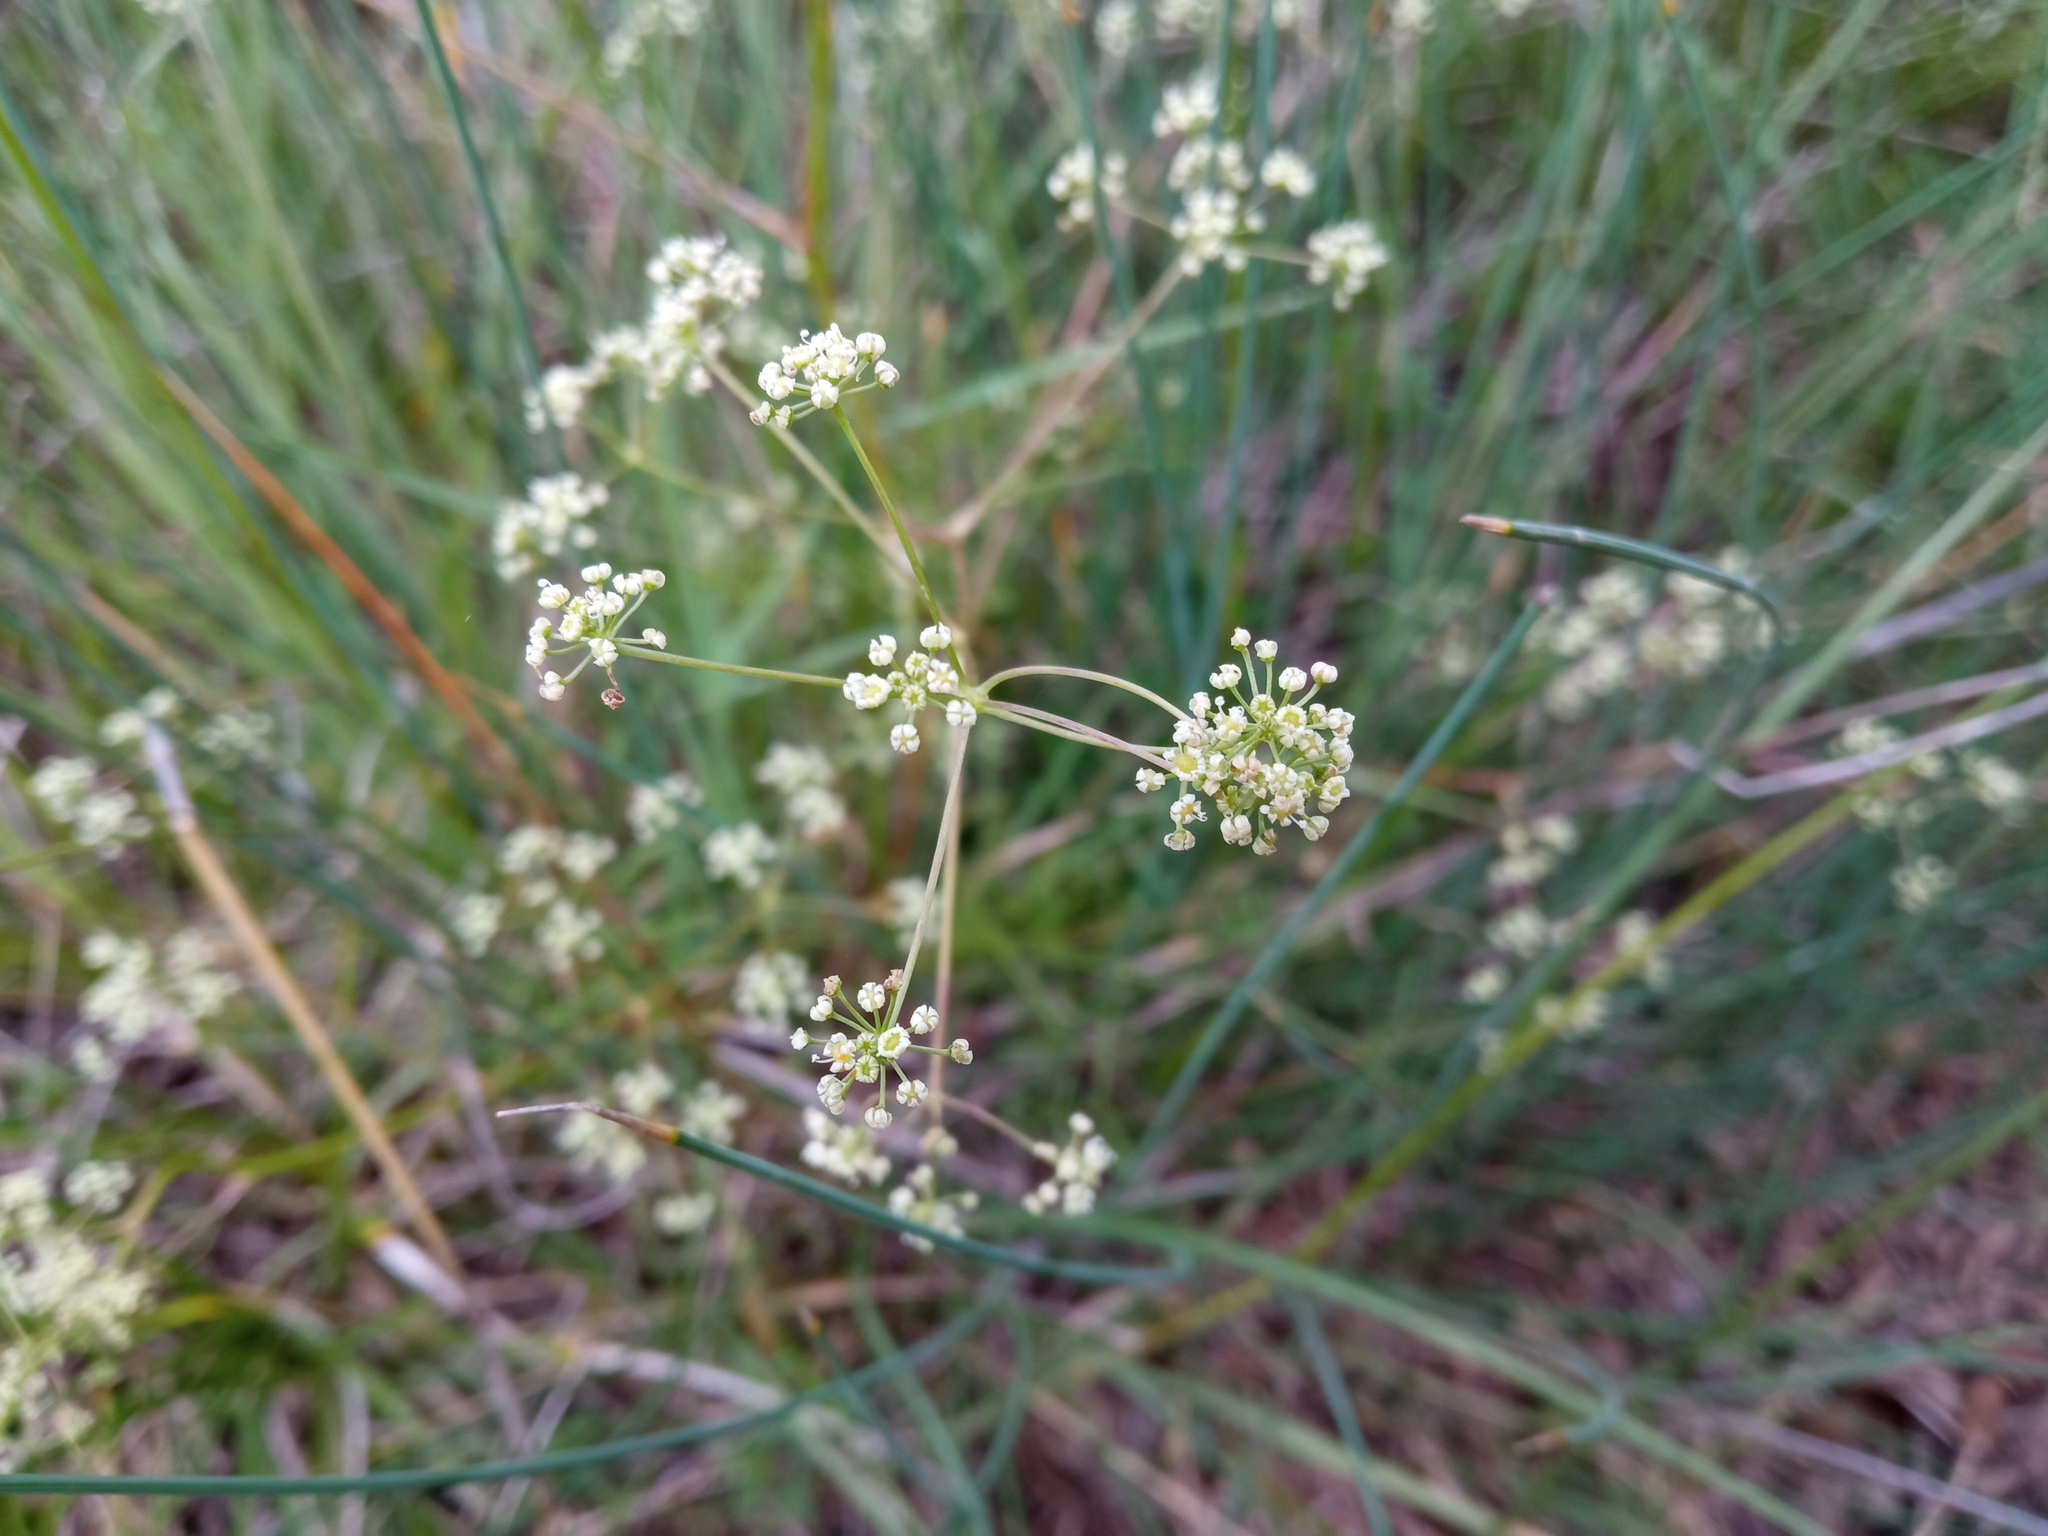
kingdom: Plantae
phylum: Tracheophyta
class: Magnoliopsida
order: Apiales
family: Apiaceae
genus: Trinia
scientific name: Trinia glauca
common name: Honewort
